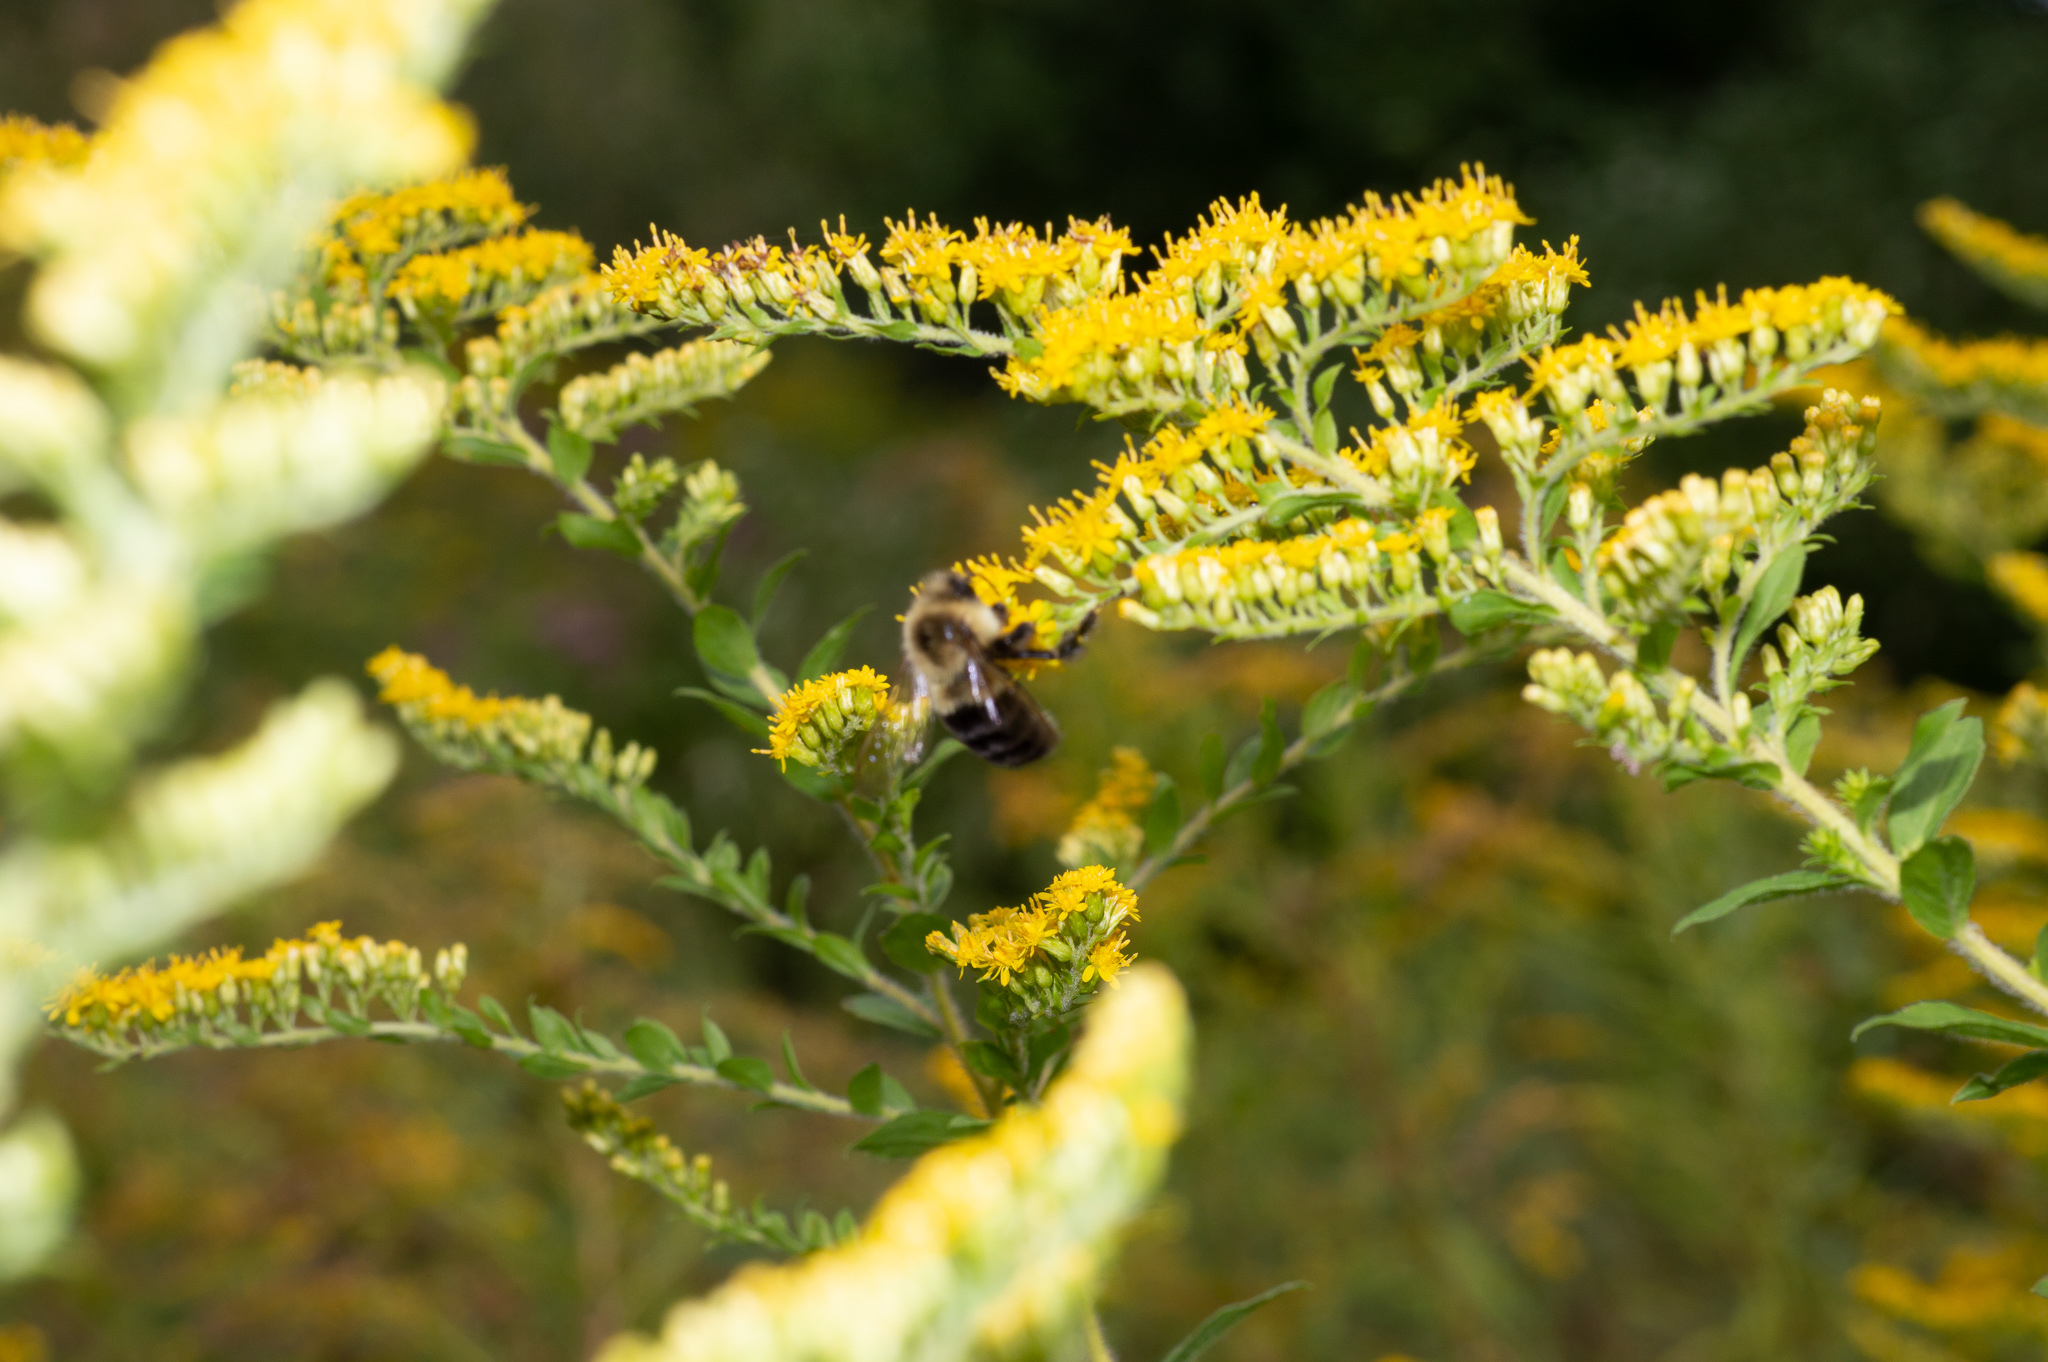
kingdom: Animalia
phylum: Arthropoda
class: Insecta
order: Hymenoptera
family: Apidae
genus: Bombus
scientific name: Bombus impatiens
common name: Common eastern bumble bee
